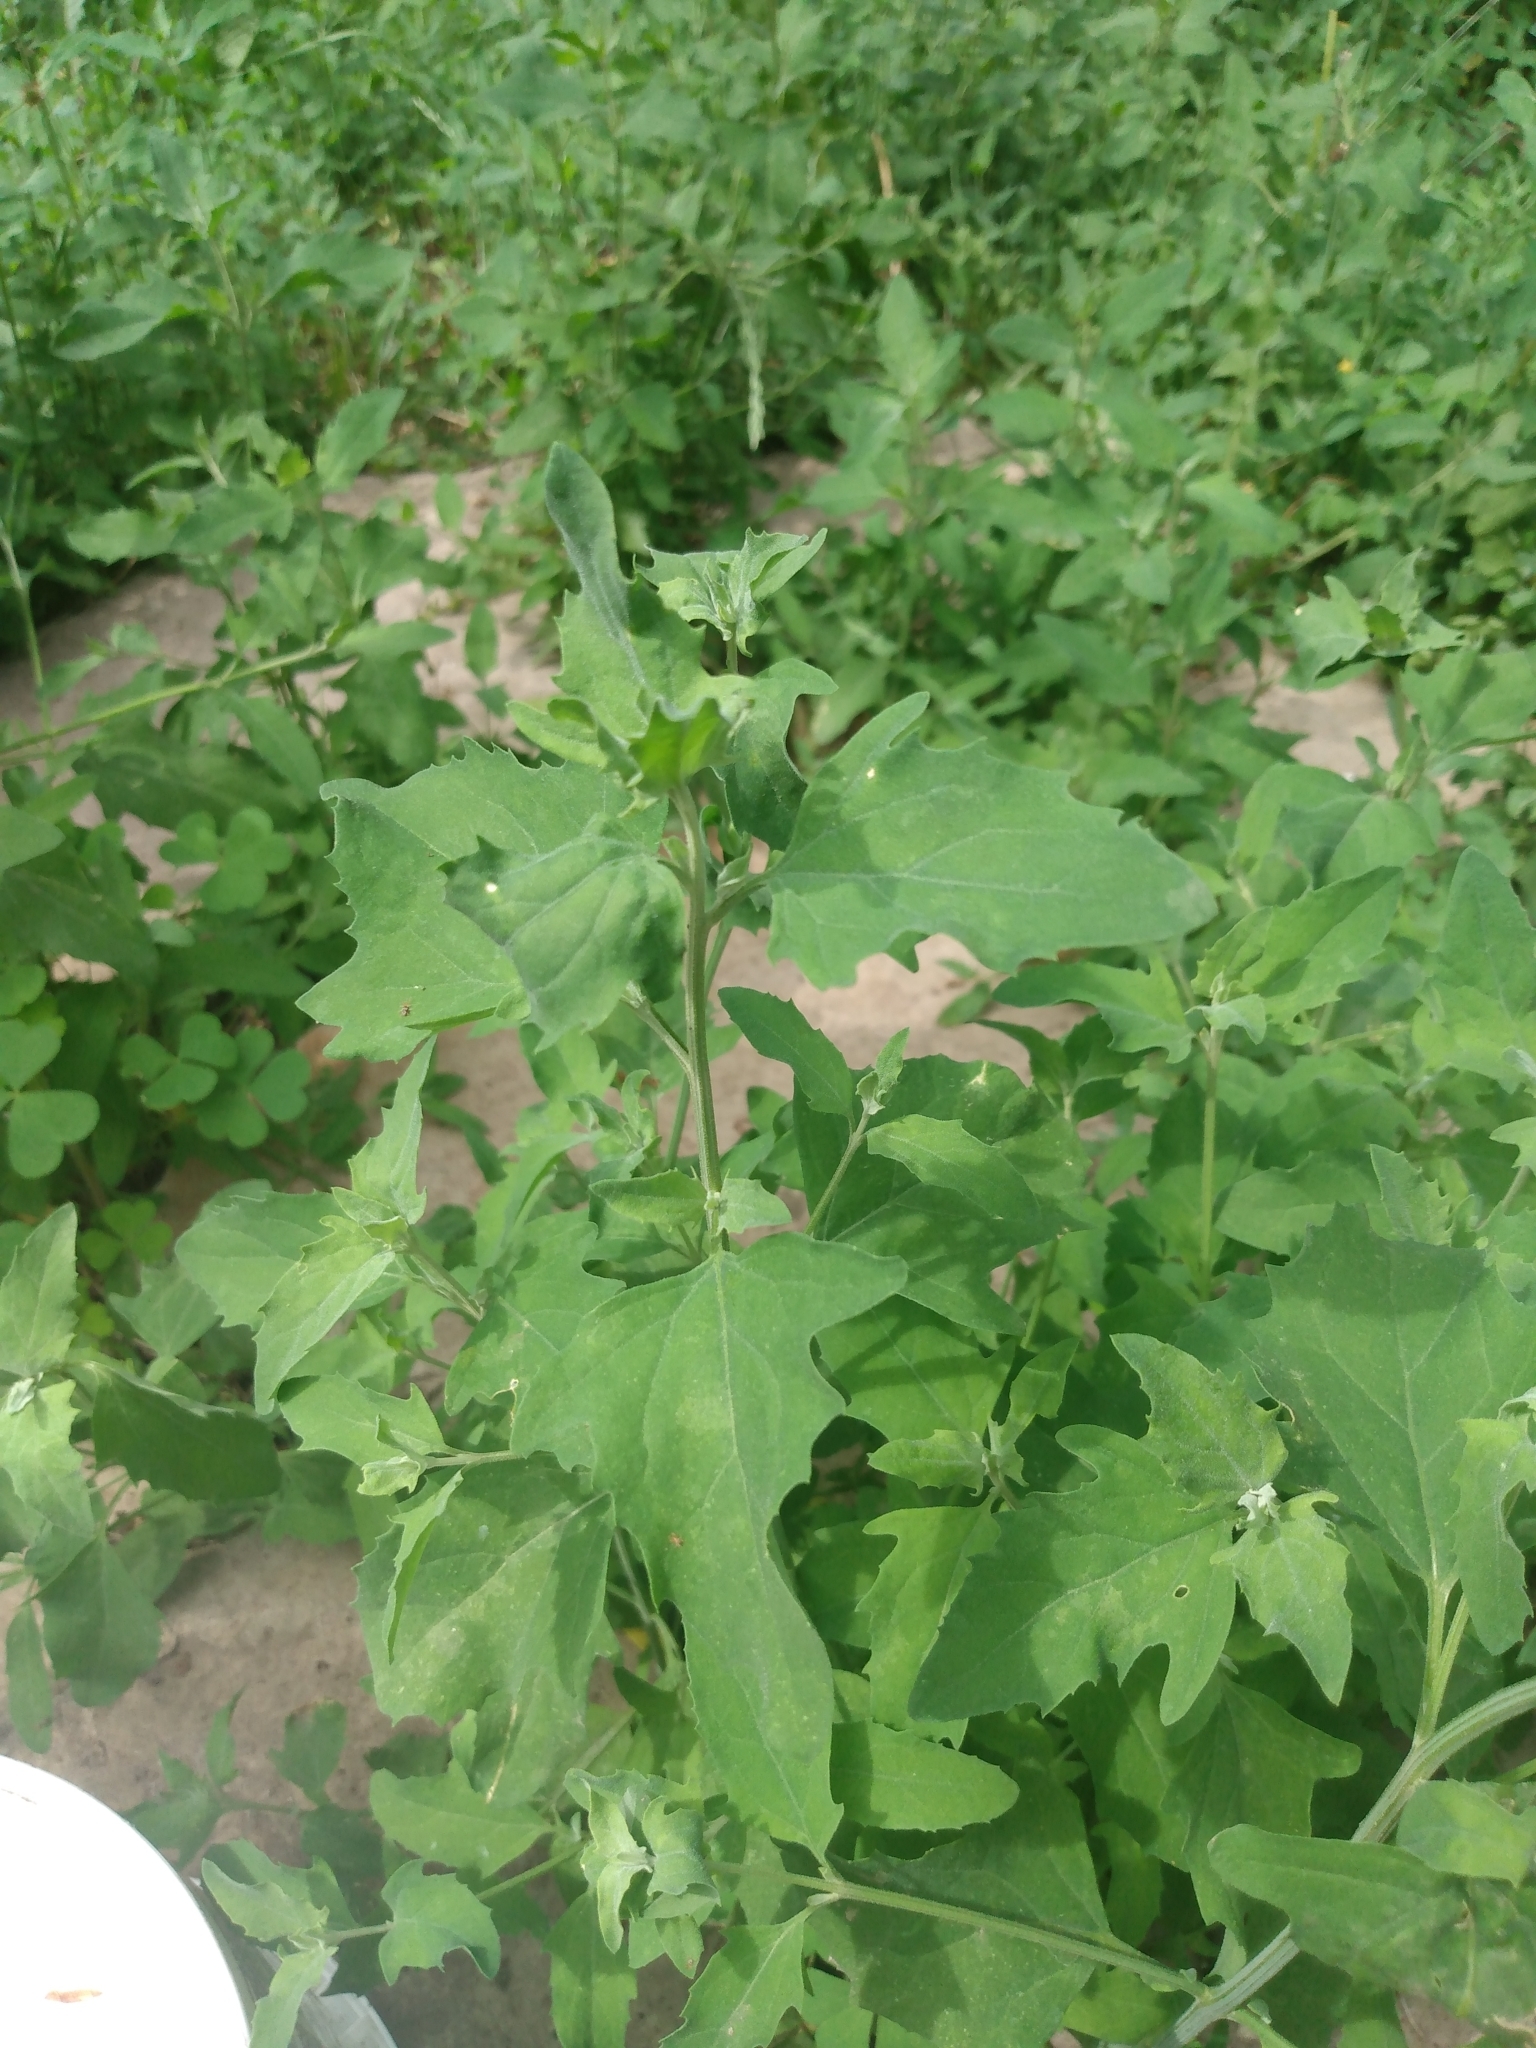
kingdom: Plantae
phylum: Tracheophyta
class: Magnoliopsida
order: Caryophyllales
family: Amaranthaceae
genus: Chenopodium
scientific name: Chenopodium album
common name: Fat-hen
